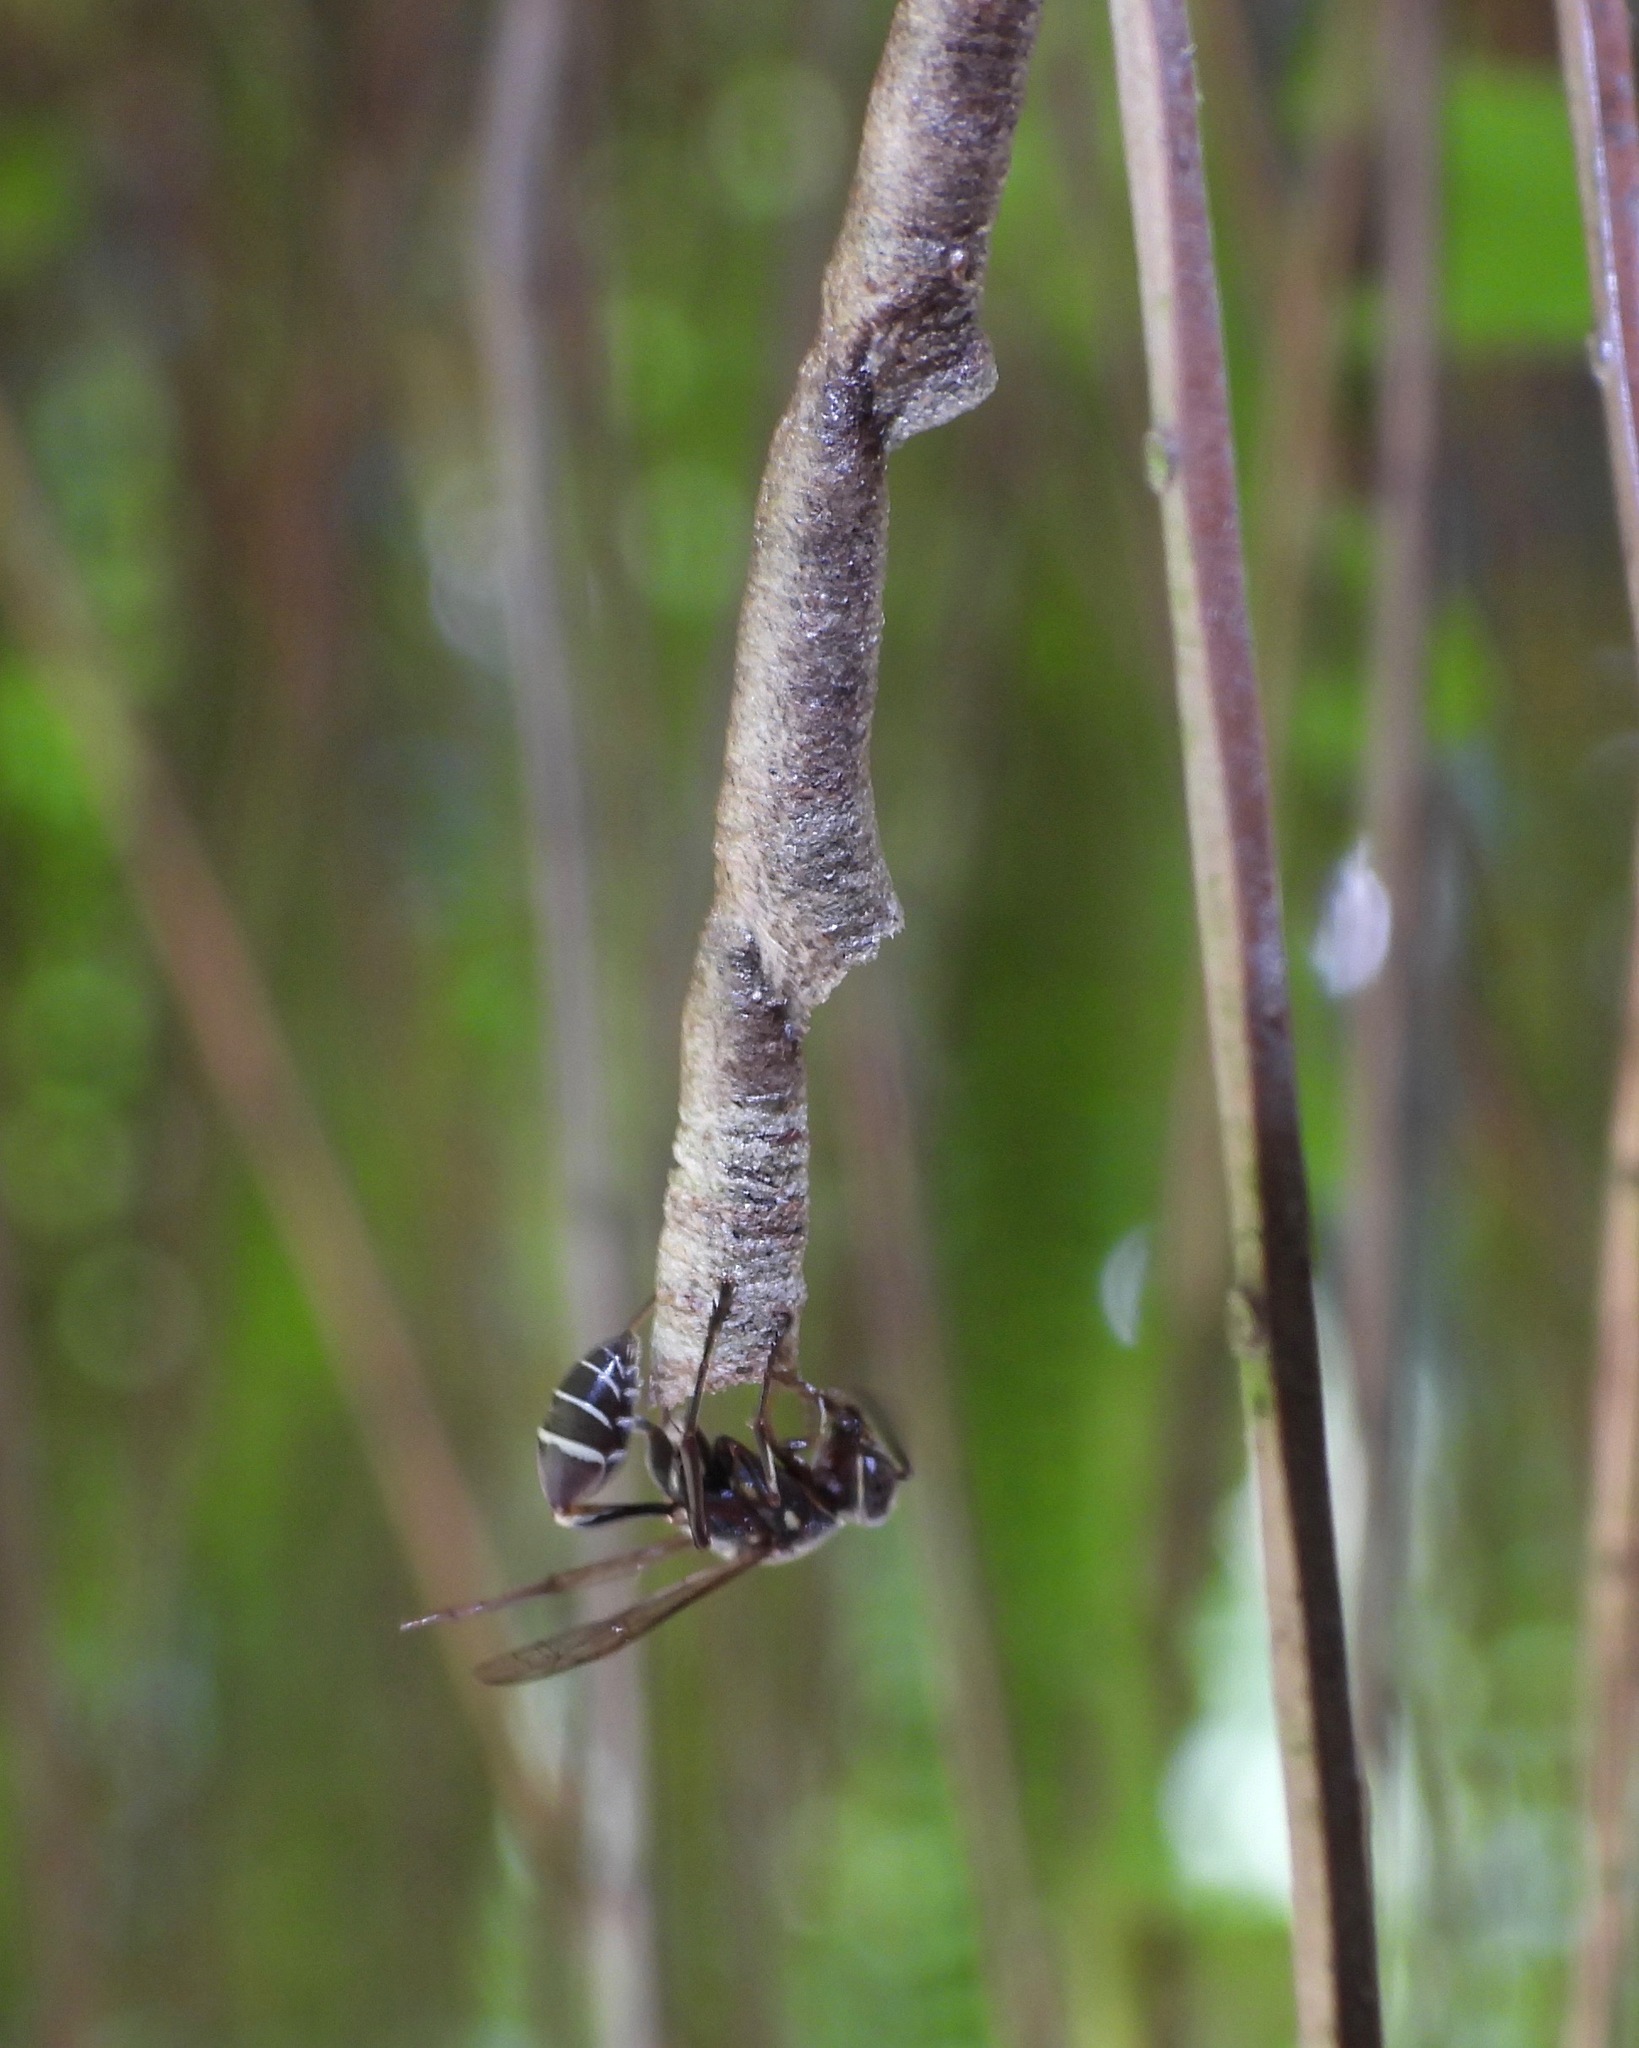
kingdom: Animalia
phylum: Arthropoda
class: Insecta
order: Hymenoptera
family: Vespidae
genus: Mischocyttarus
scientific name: Mischocyttarus chalucas
